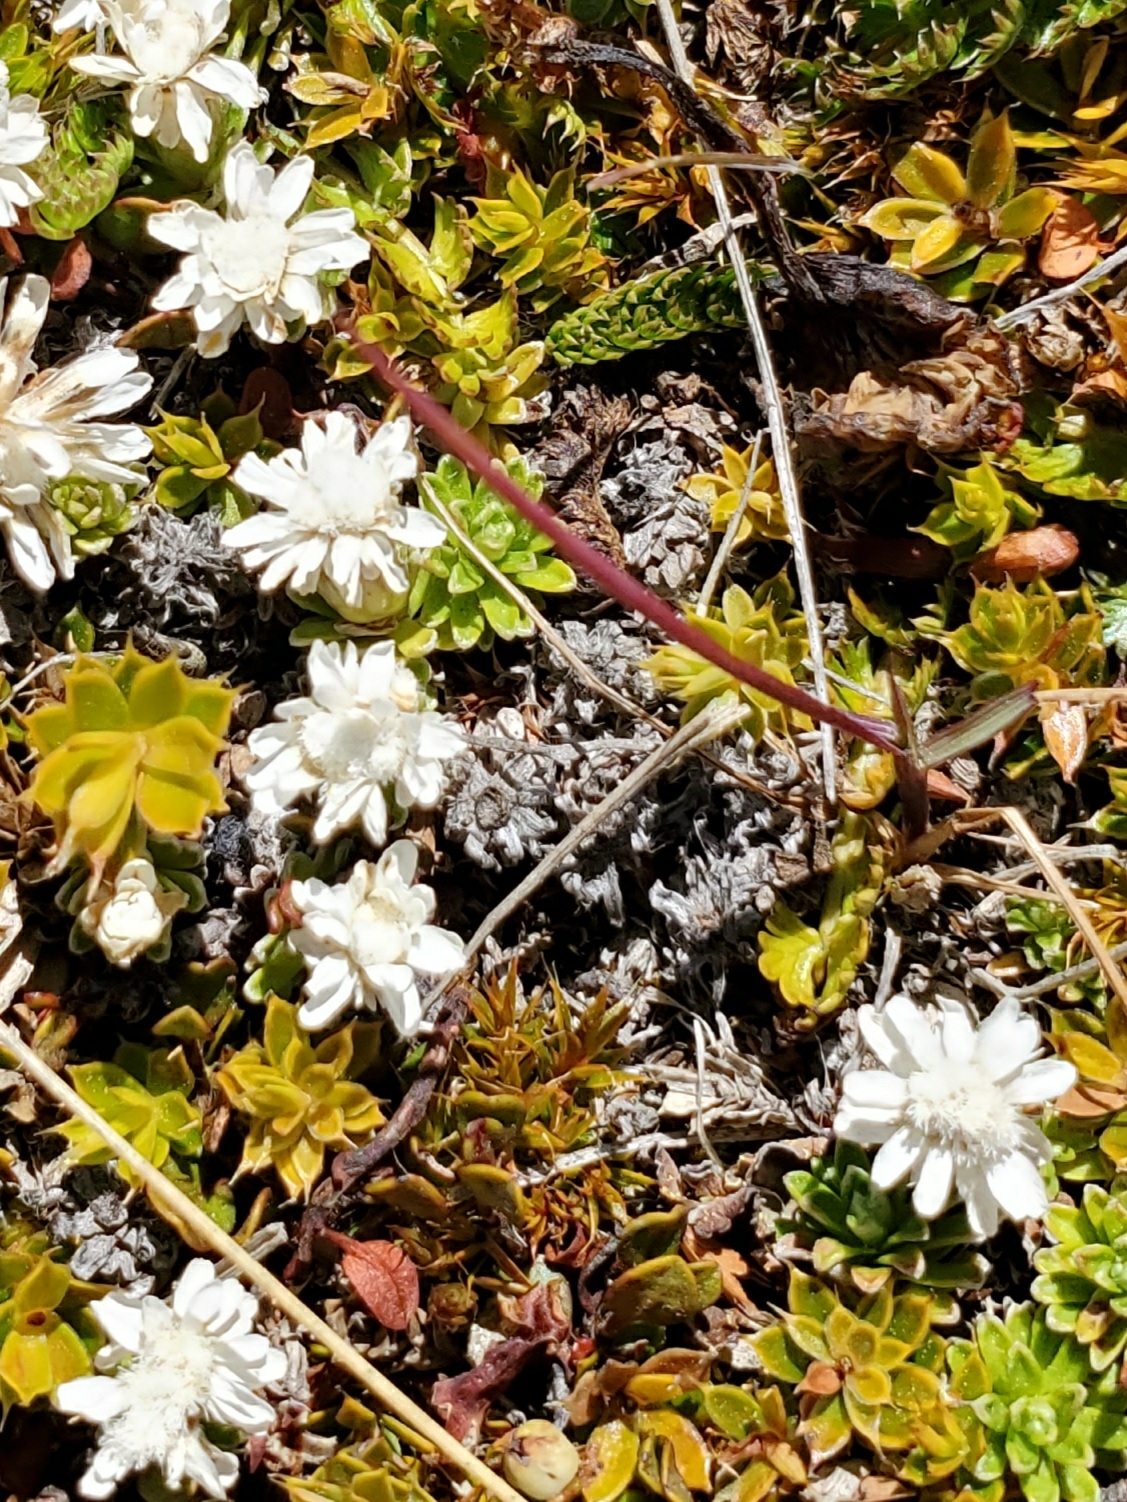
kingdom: Plantae
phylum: Tracheophyta
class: Magnoliopsida
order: Asterales
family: Asteraceae
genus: Raoulia
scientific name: Raoulia subsericea
